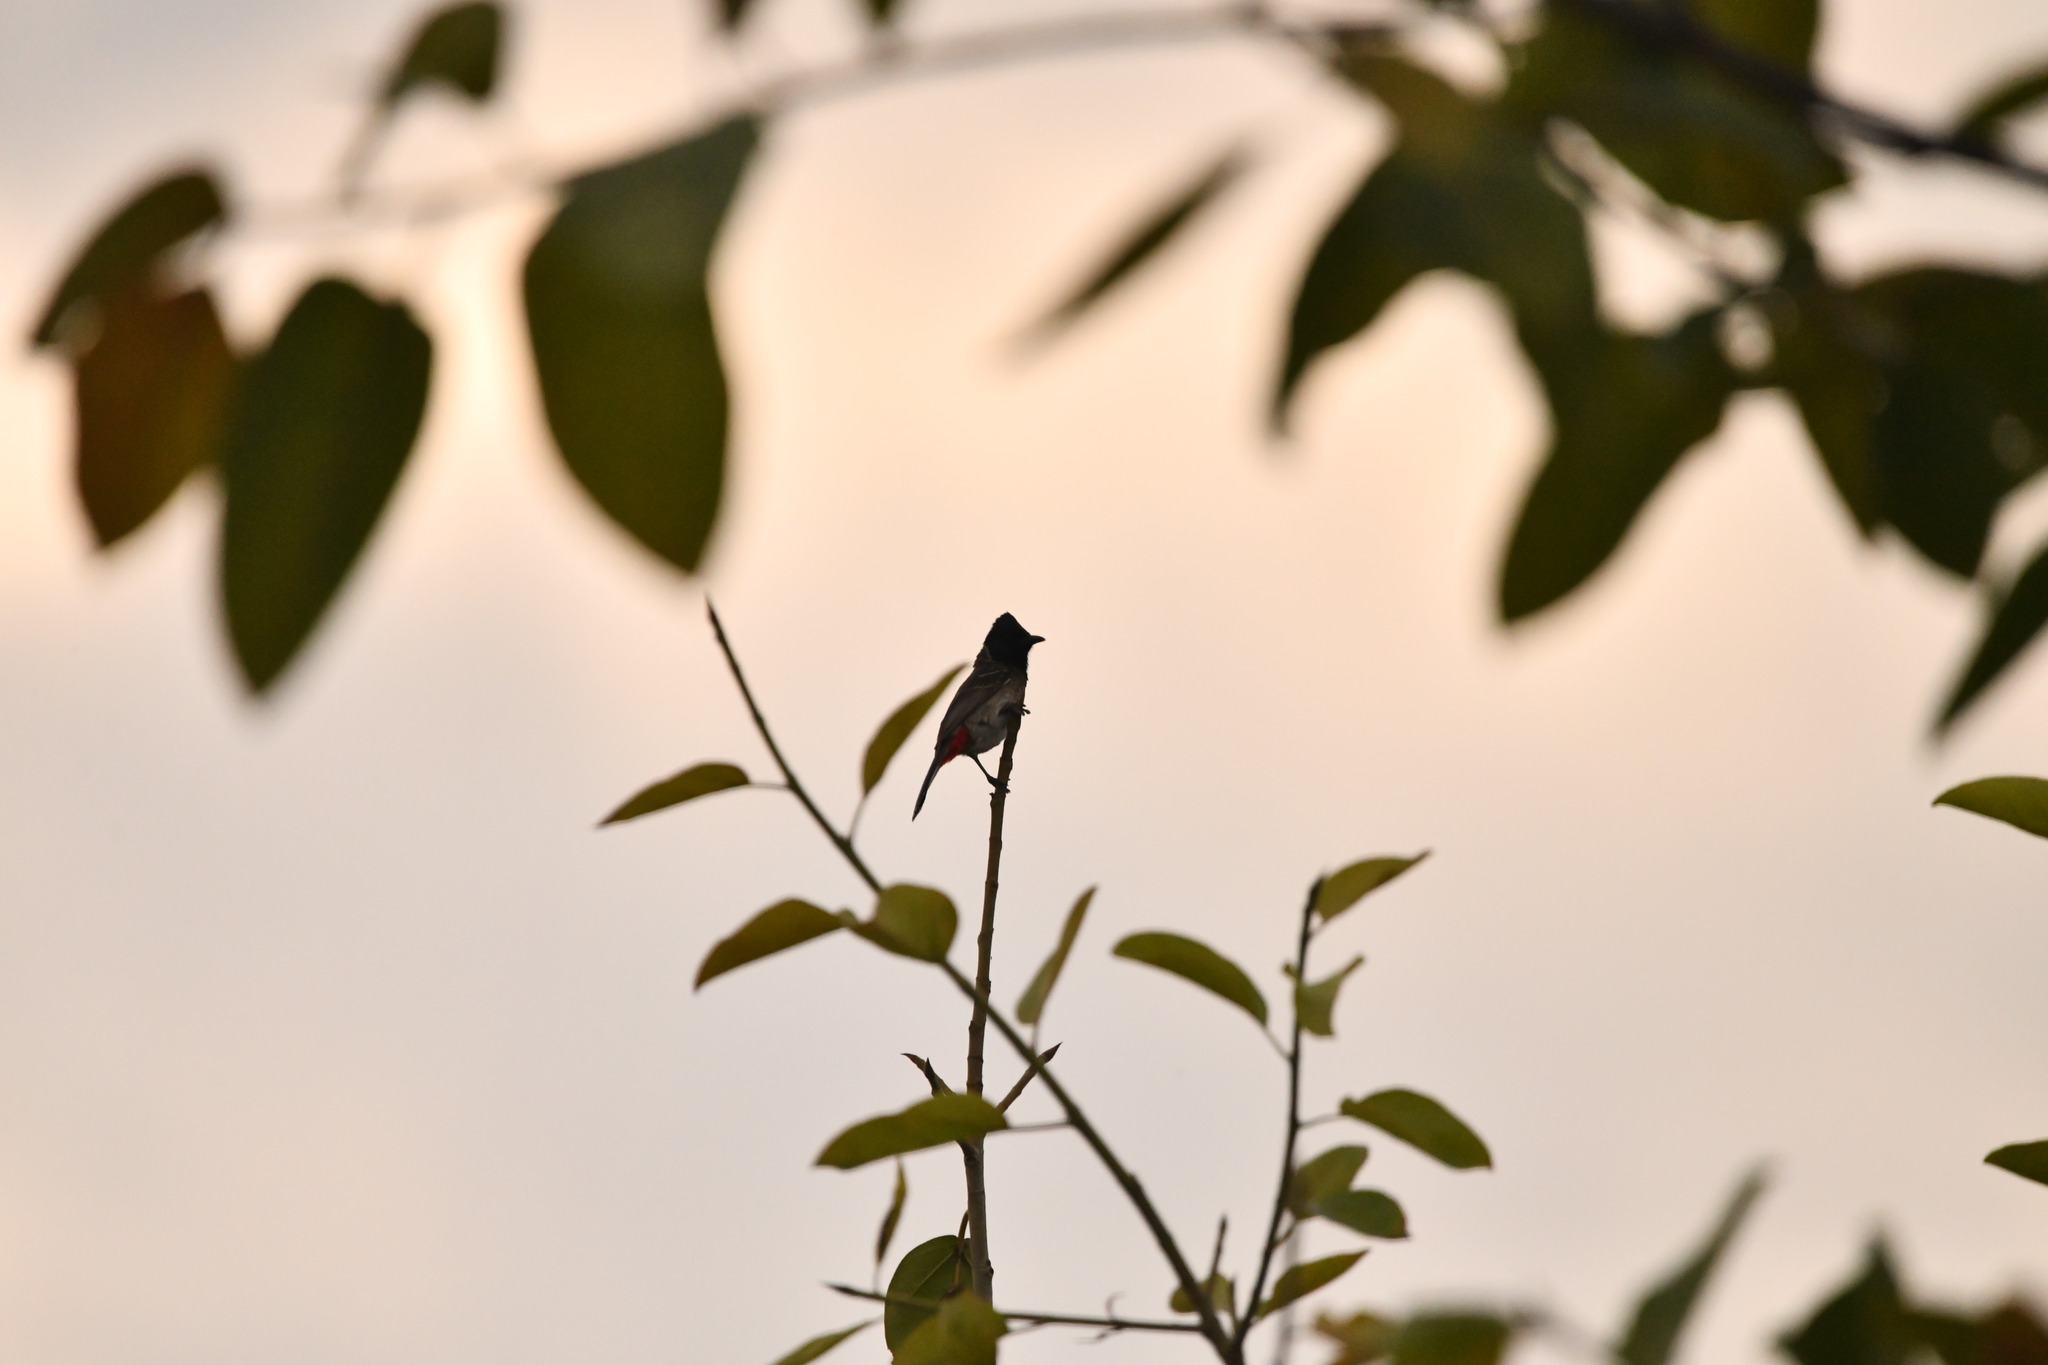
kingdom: Animalia
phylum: Chordata
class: Aves
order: Passeriformes
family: Pycnonotidae
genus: Pycnonotus
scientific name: Pycnonotus cafer
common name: Red-vented bulbul
